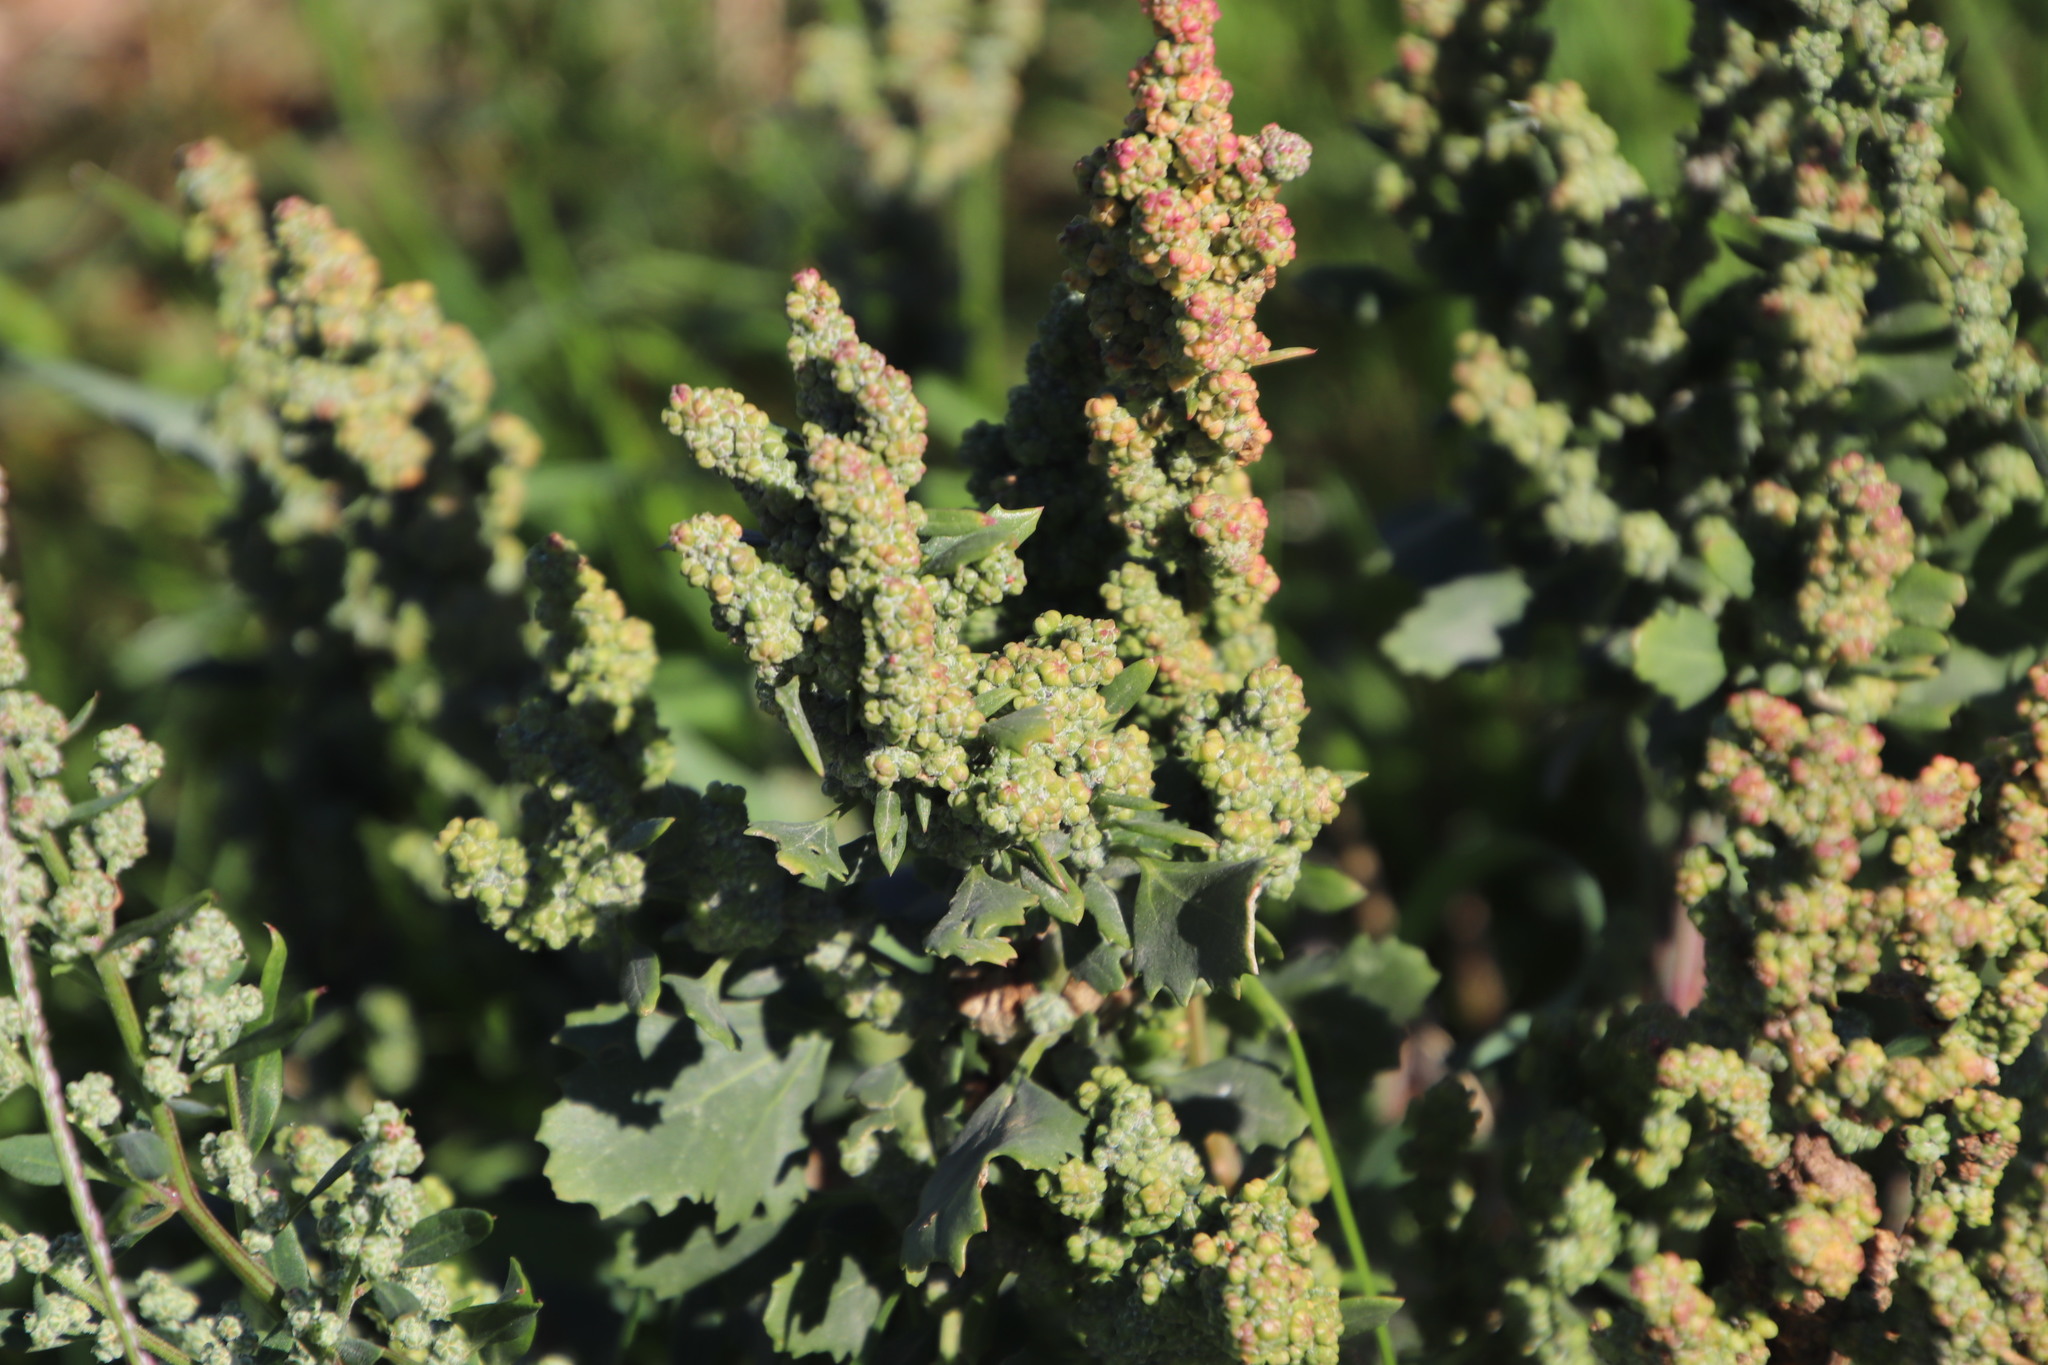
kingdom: Plantae
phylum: Tracheophyta
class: Magnoliopsida
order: Caryophyllales
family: Amaranthaceae
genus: Chenopodiastrum
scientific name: Chenopodiastrum murale
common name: Sowbane
